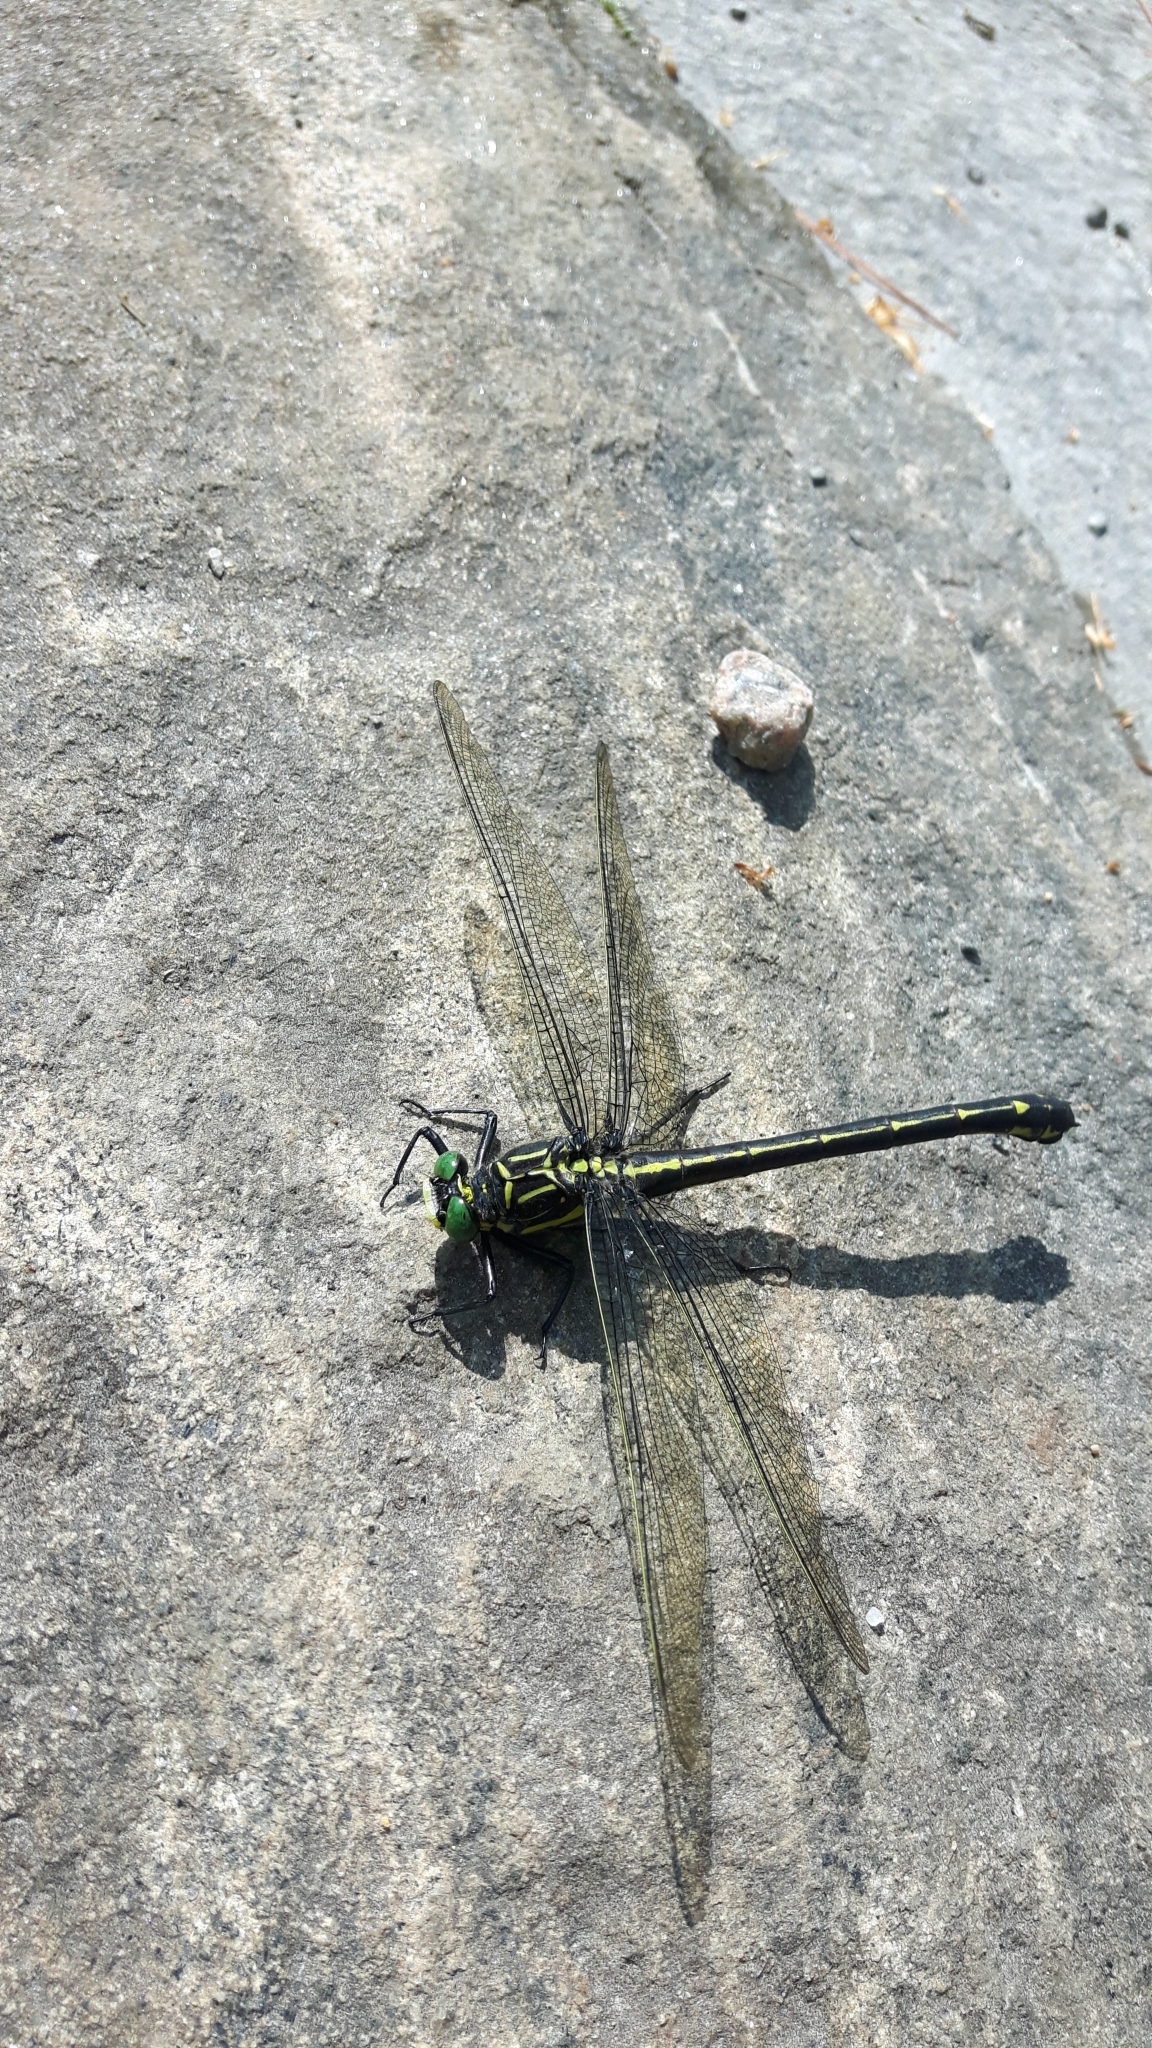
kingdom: Animalia
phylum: Arthropoda
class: Insecta
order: Odonata
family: Gomphidae
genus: Hagenius
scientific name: Hagenius brevistylus
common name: Dragonhunter
